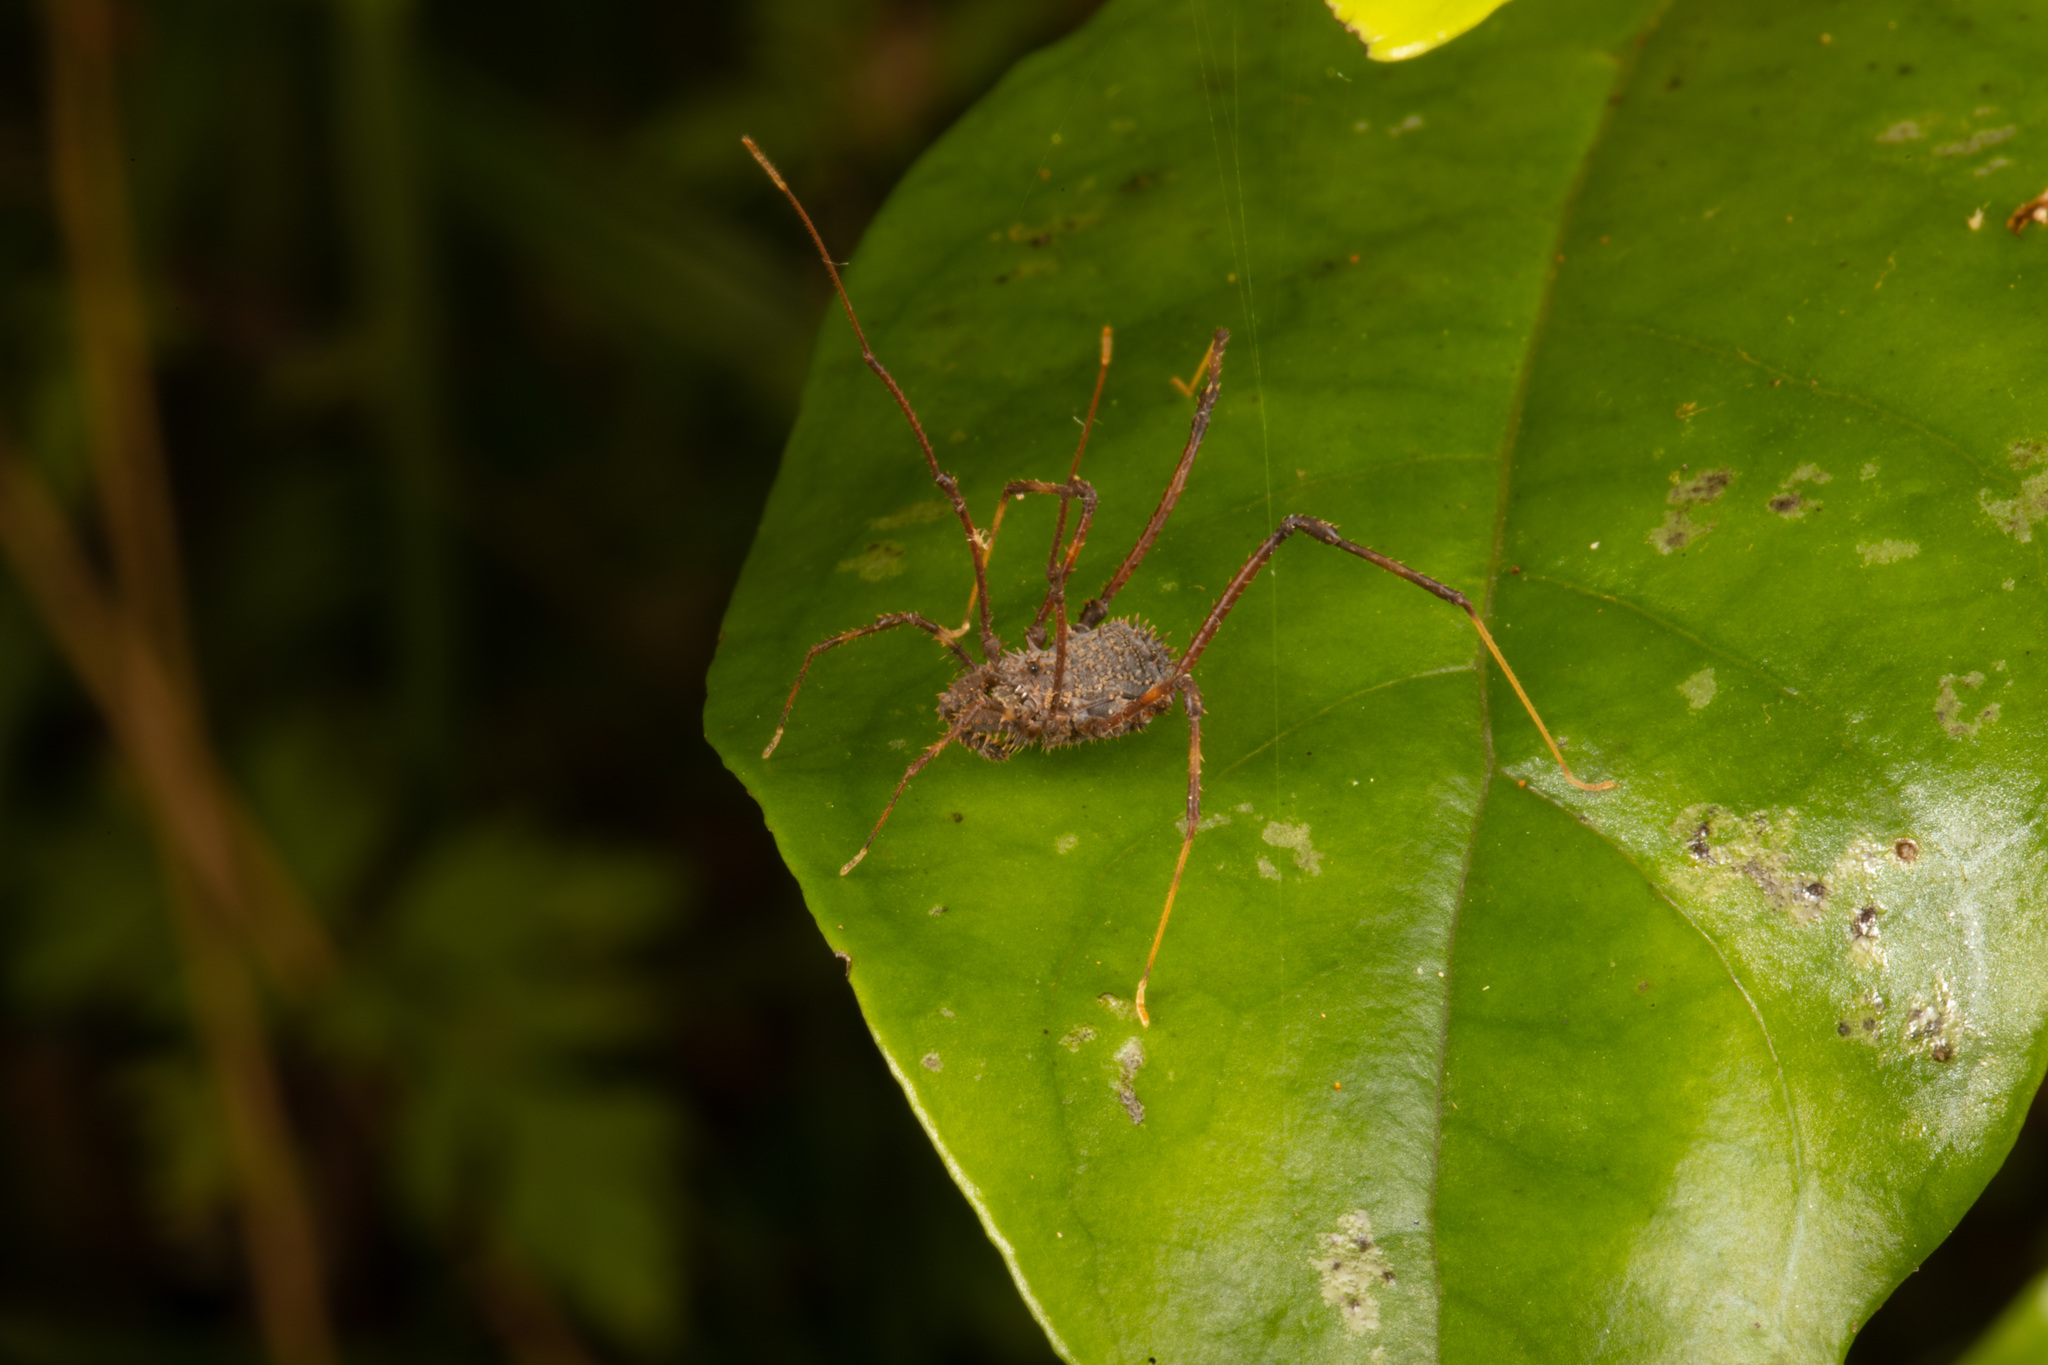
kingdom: Animalia
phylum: Arthropoda
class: Arachnida
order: Opiliones
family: Triaenonychidae
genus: Triregia
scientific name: Triregia fairburni
